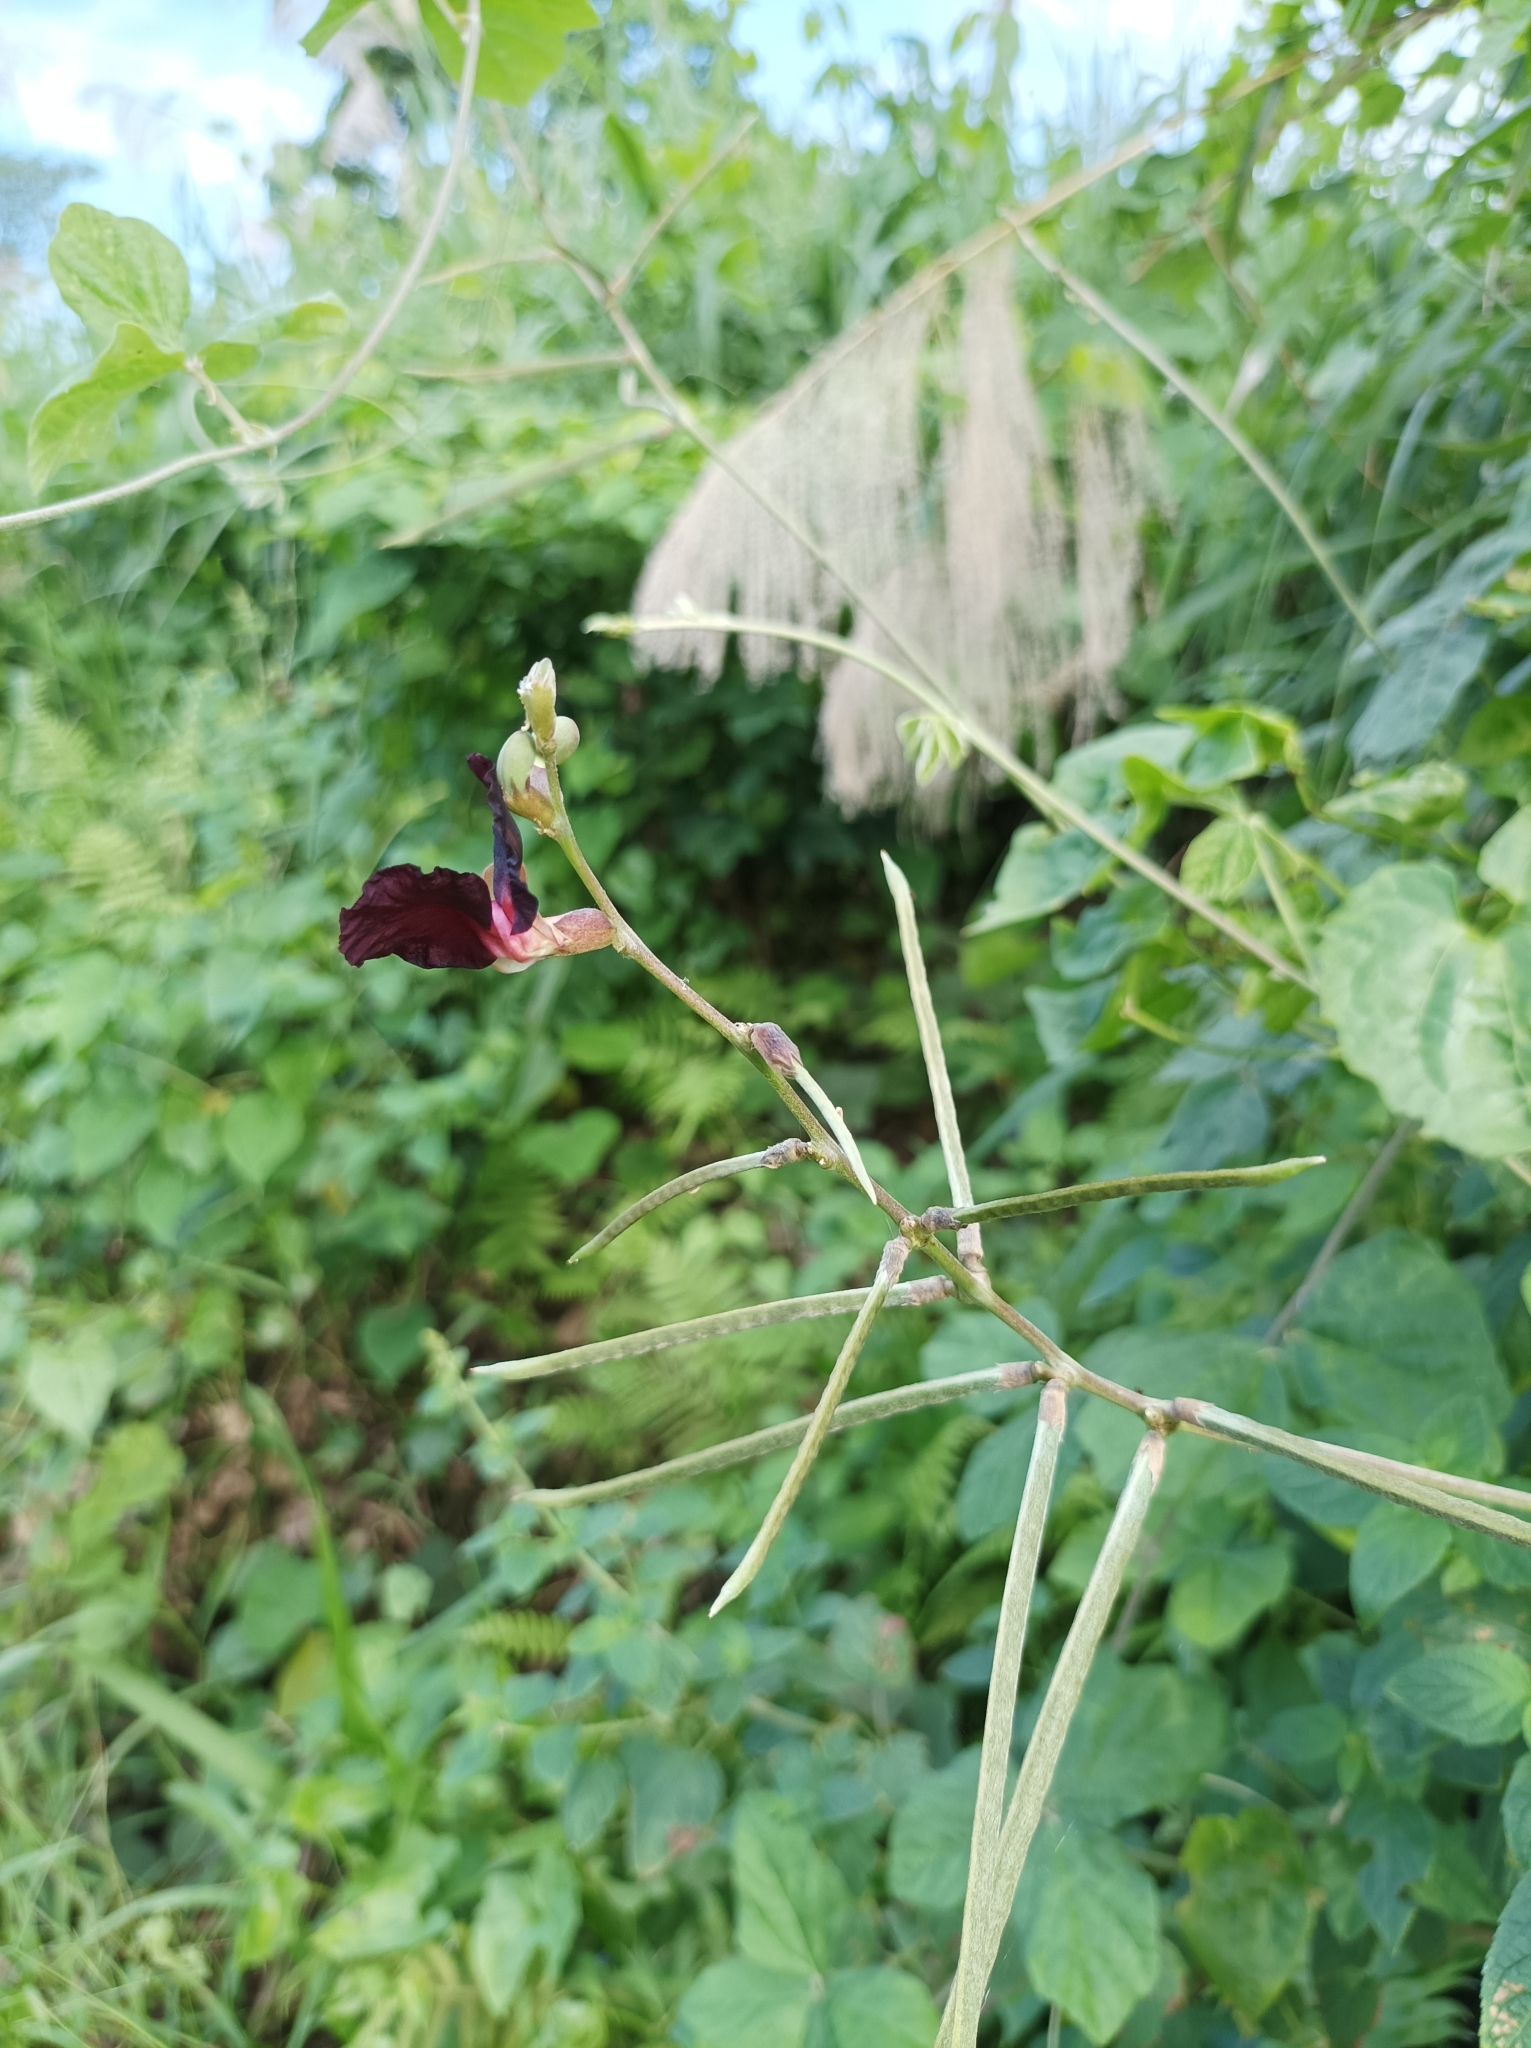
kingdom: Plantae
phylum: Tracheophyta
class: Magnoliopsida
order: Fabales
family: Fabaceae
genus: Macroptilium
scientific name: Macroptilium atropurpureum
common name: Purple bushbean
